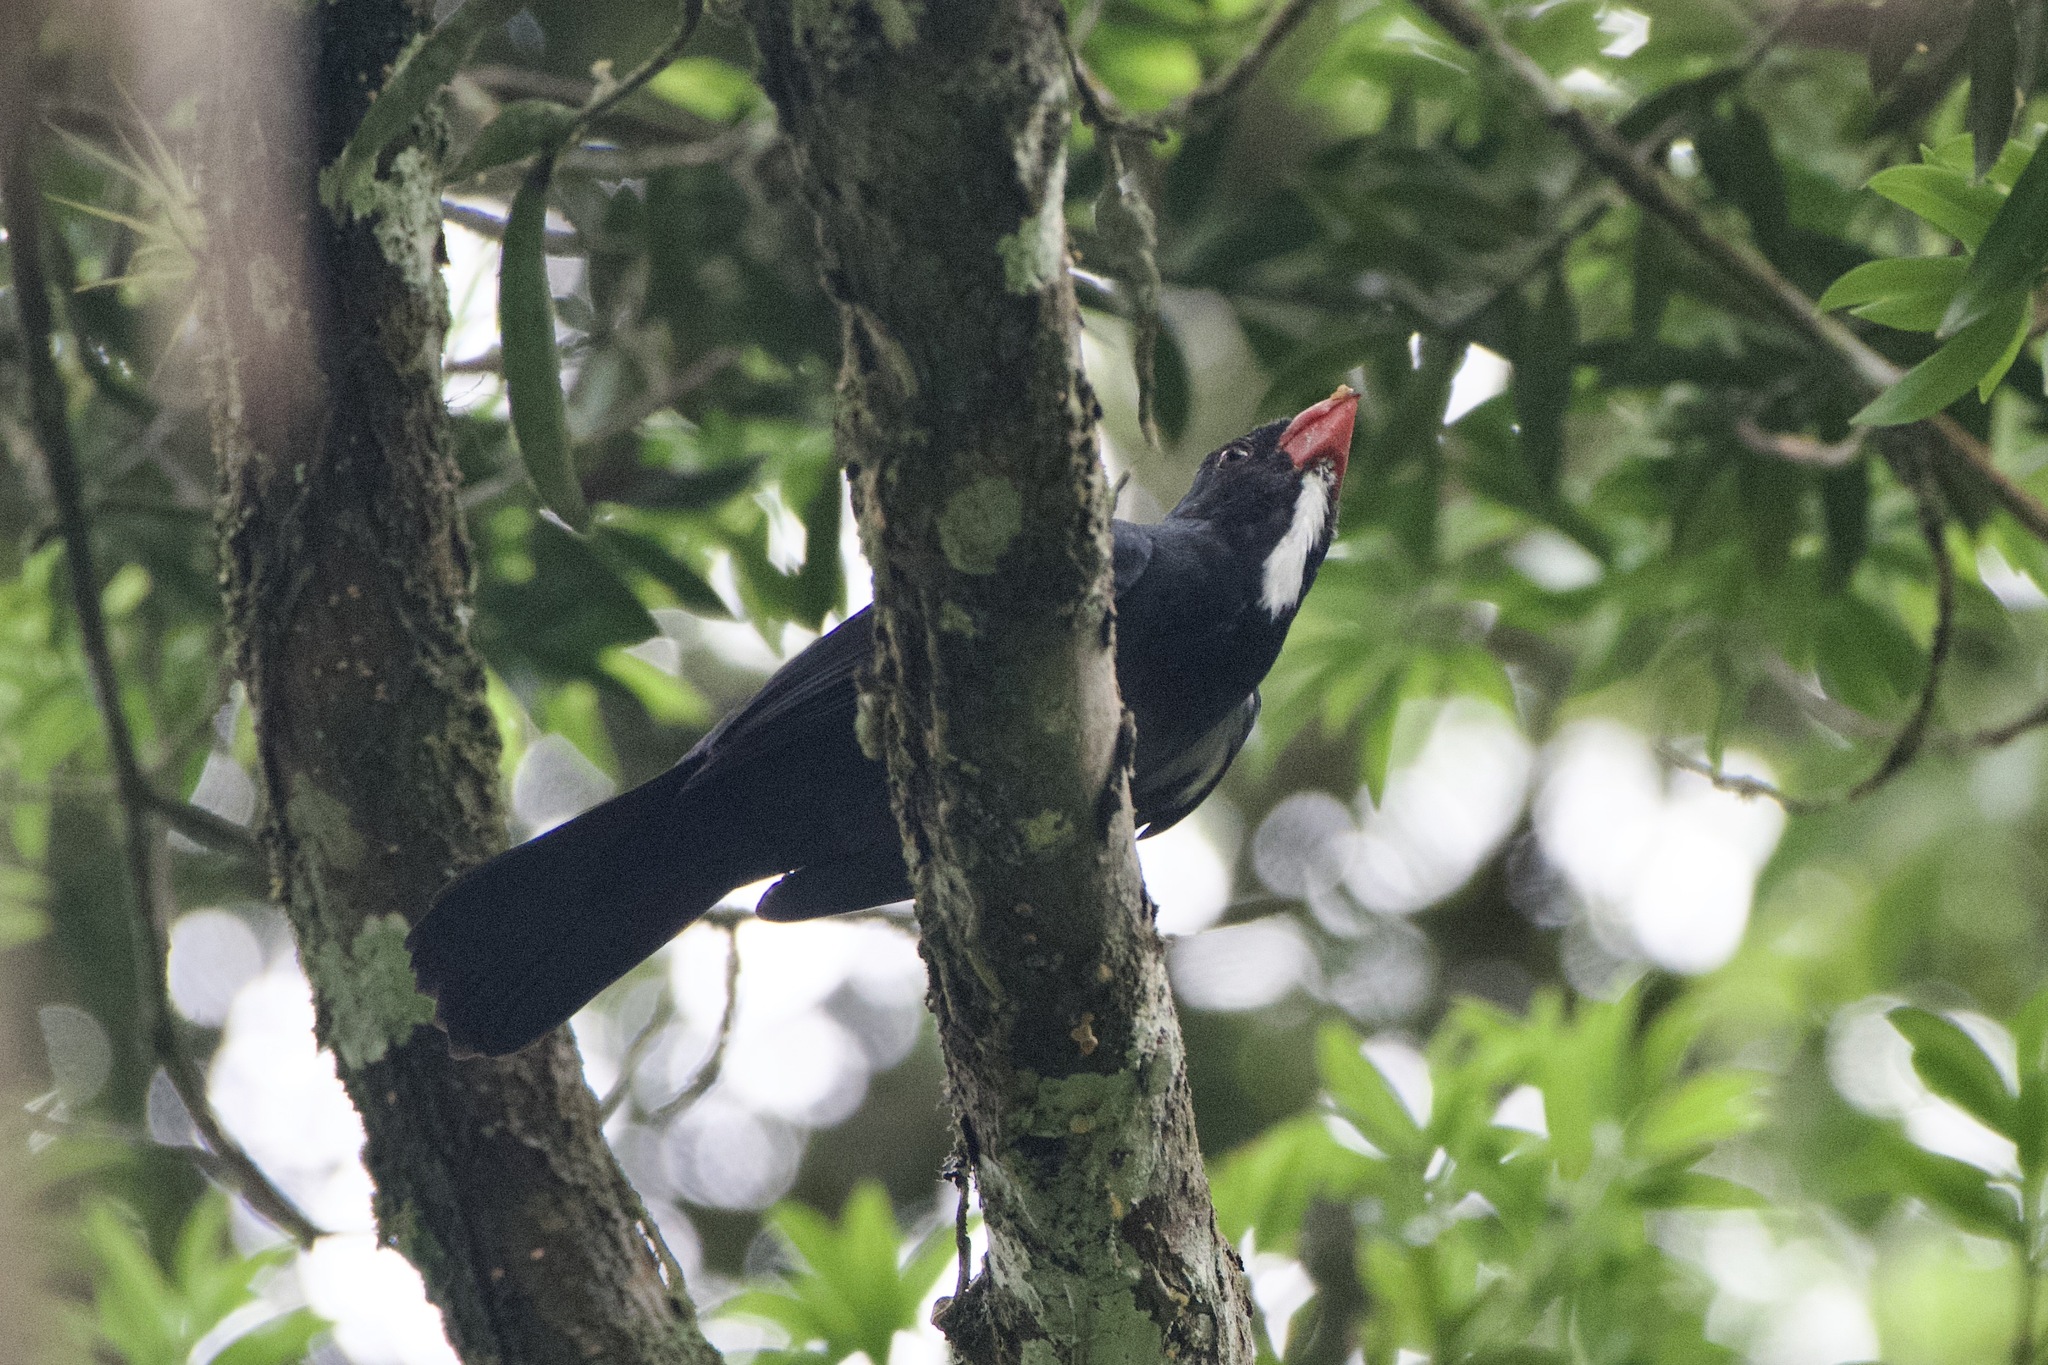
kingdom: Animalia
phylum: Chordata
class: Aves
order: Passeriformes
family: Thraupidae
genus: Saltator
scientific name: Saltator grossus
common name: Slate-colored grosbeak
